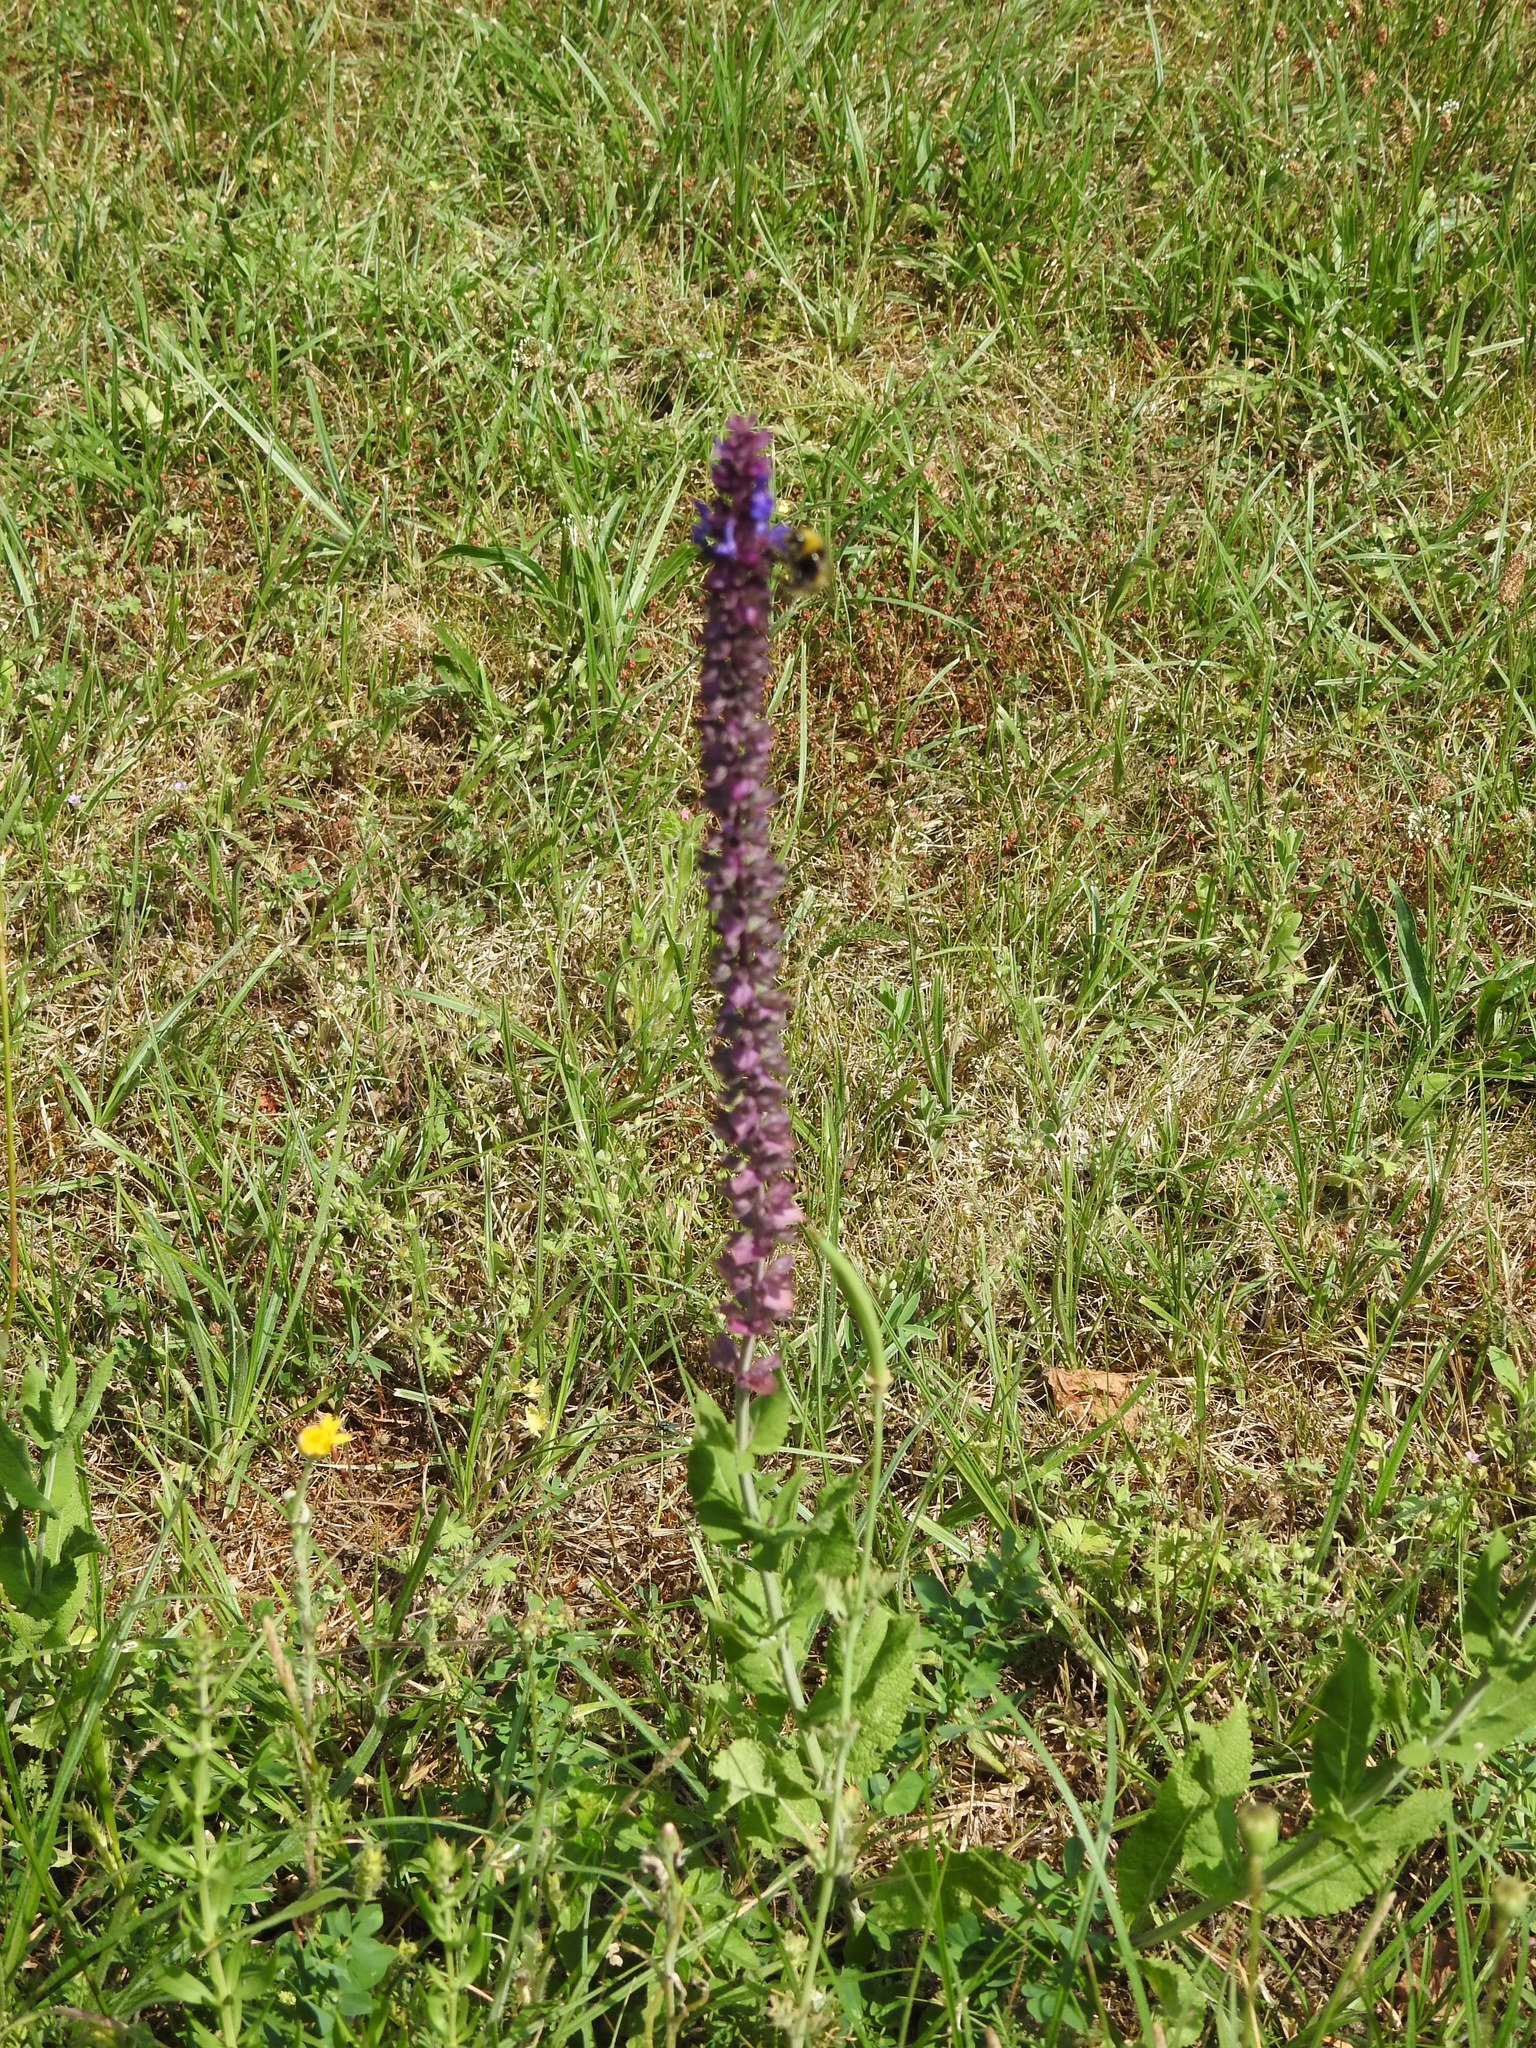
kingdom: Plantae
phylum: Tracheophyta
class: Magnoliopsida
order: Lamiales
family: Lamiaceae
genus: Salvia
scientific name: Salvia nemorosa
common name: Balkan clary
